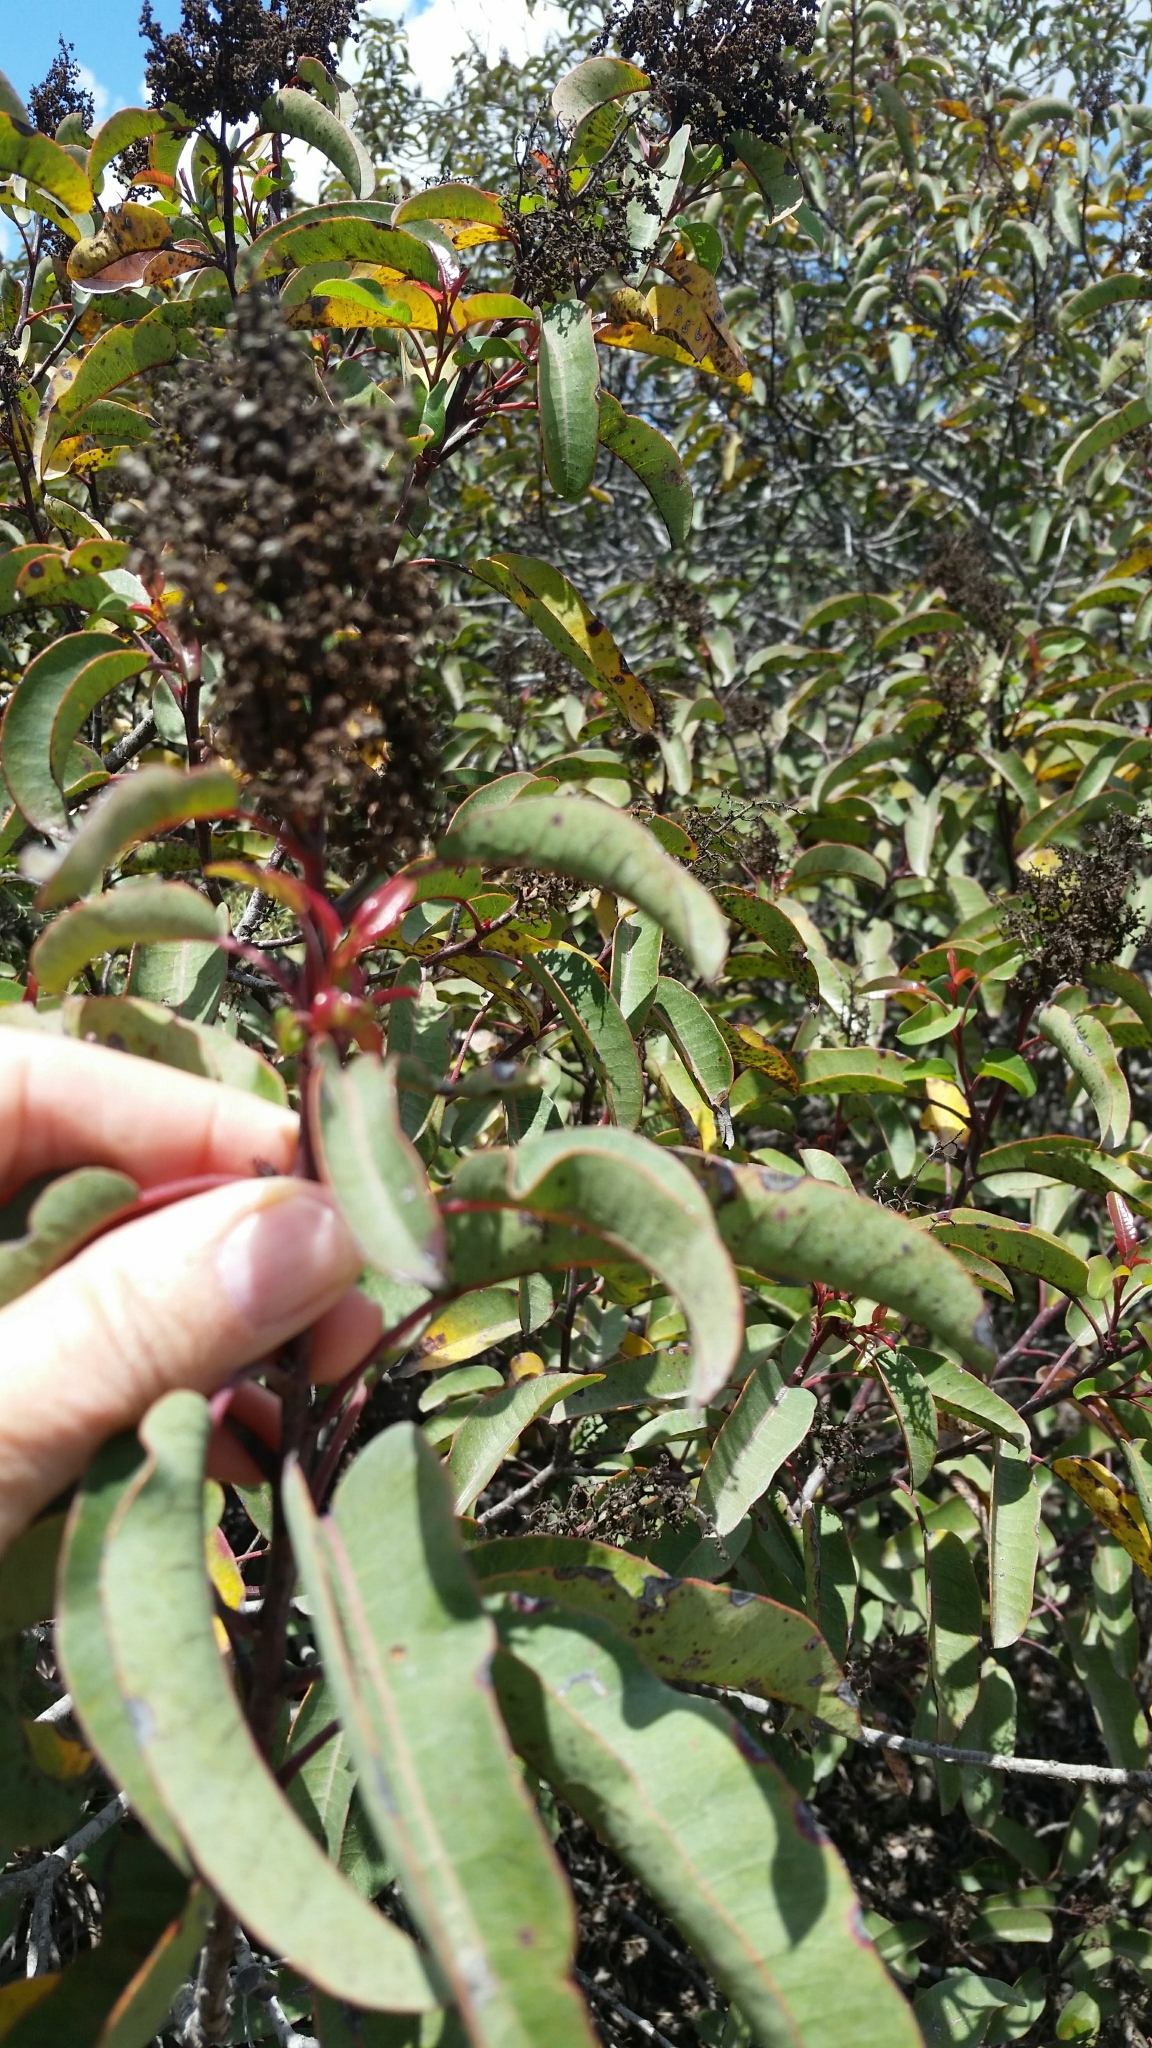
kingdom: Plantae
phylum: Tracheophyta
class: Magnoliopsida
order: Sapindales
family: Anacardiaceae
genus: Malosma
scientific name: Malosma laurina
